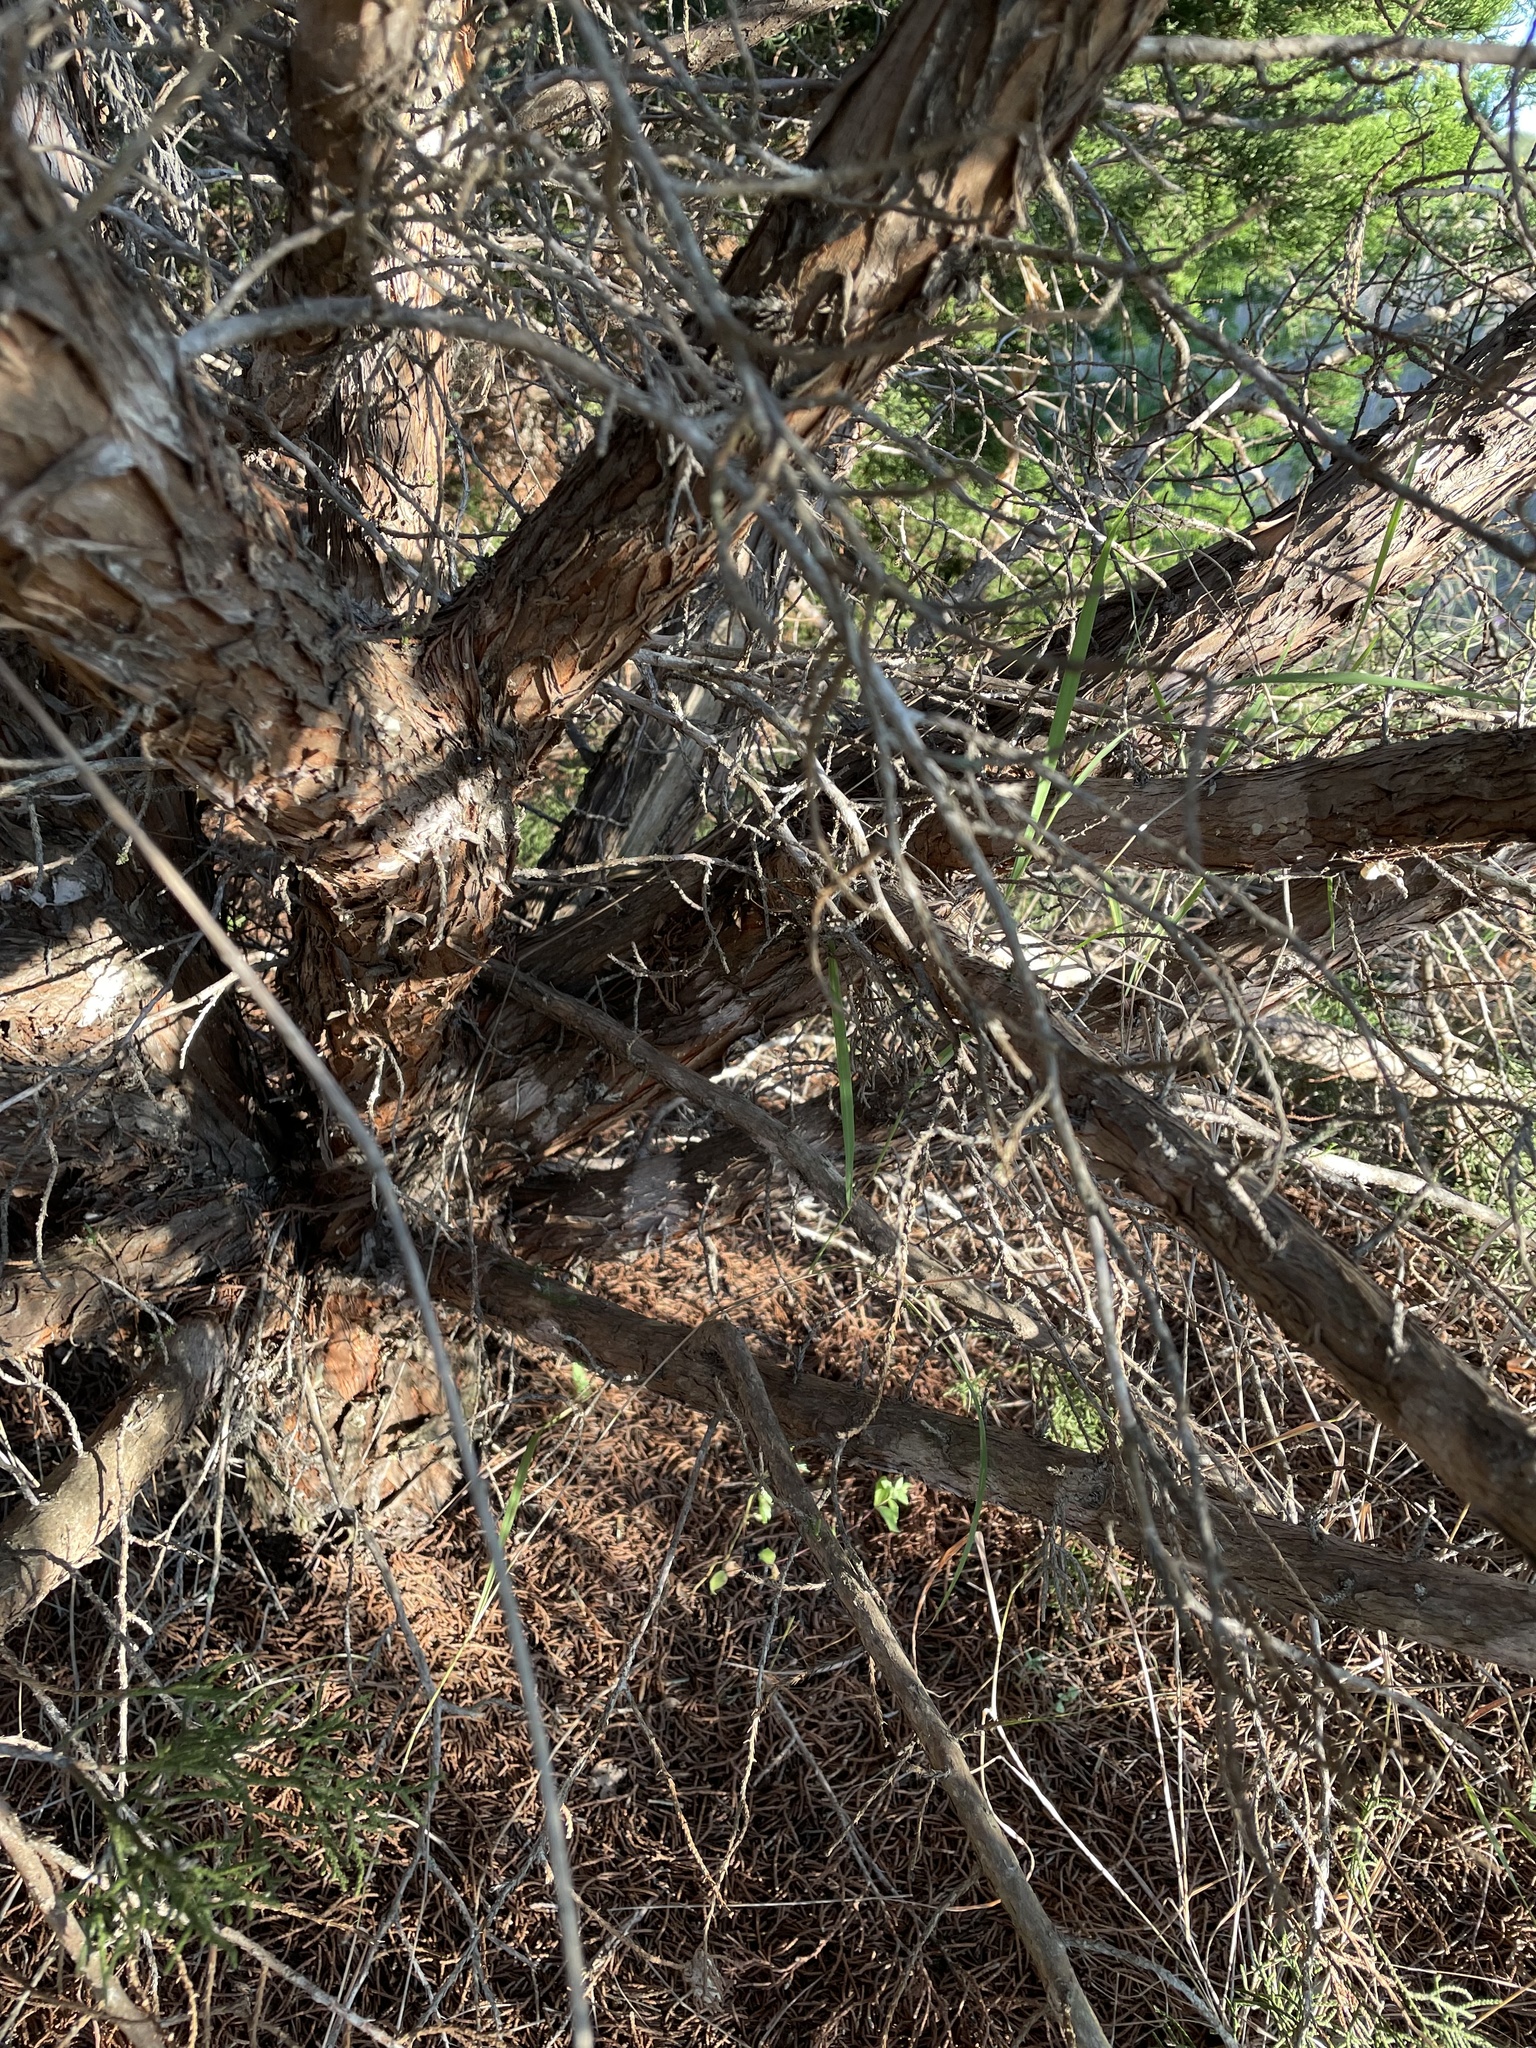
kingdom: Plantae
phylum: Tracheophyta
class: Pinopsida
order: Pinales
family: Cupressaceae
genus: Juniperus
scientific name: Juniperus ashei
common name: Mexican juniper
